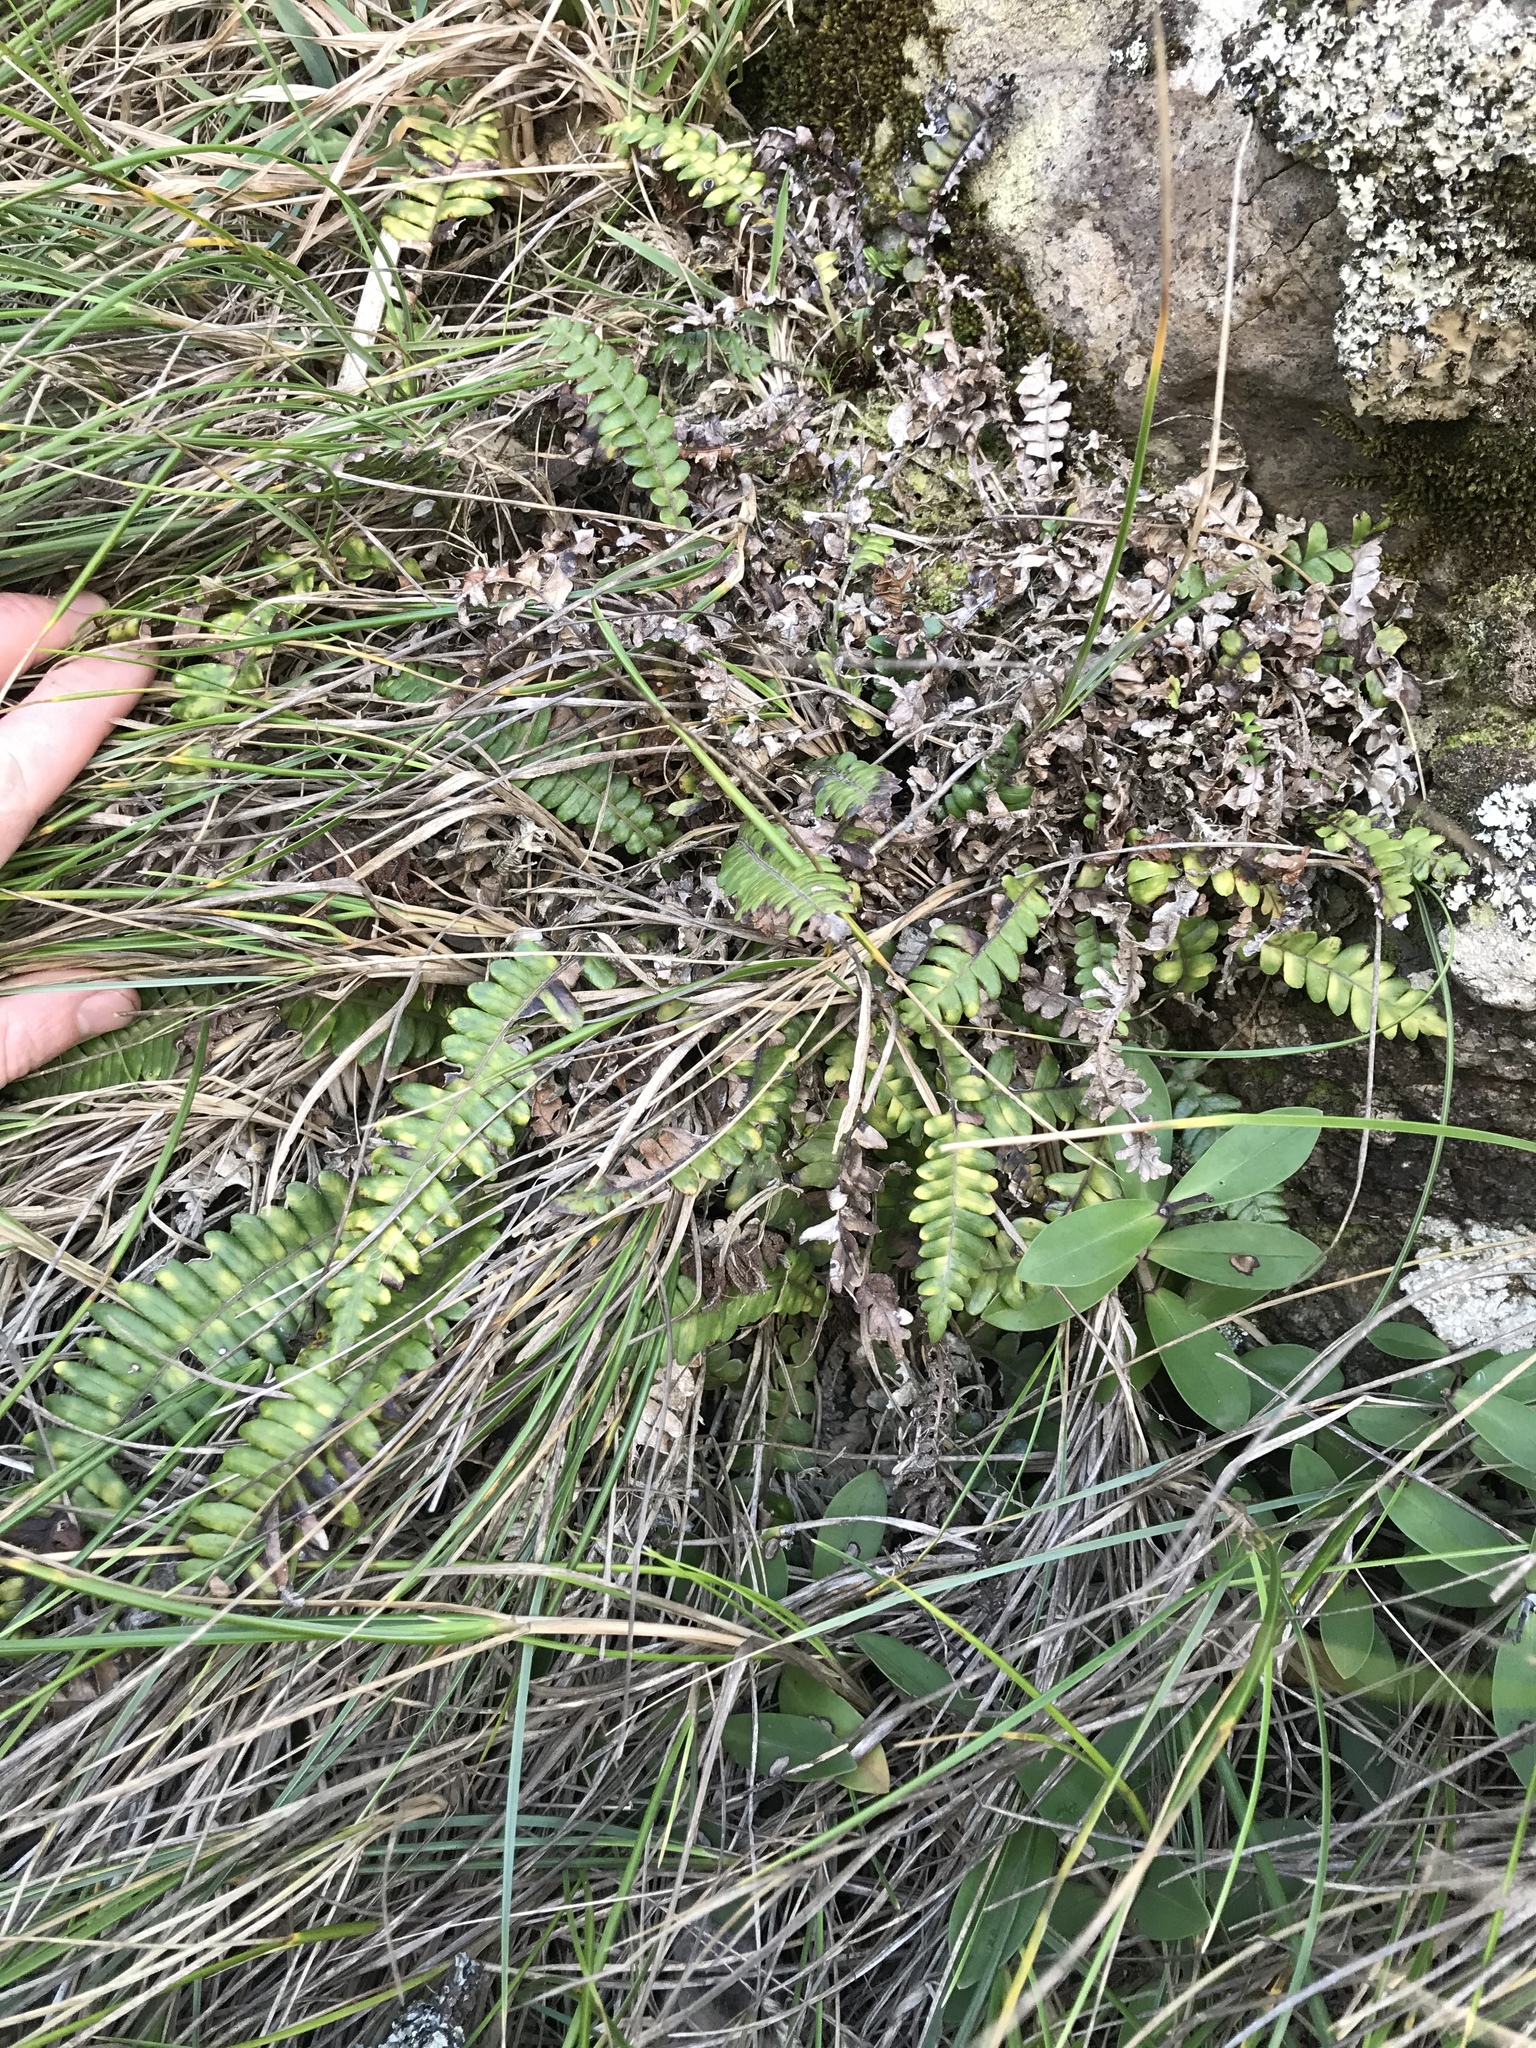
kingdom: Plantae
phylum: Tracheophyta
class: Polypodiopsida
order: Polypodiales
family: Blechnaceae
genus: Austroblechnum
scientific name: Austroblechnum durum
